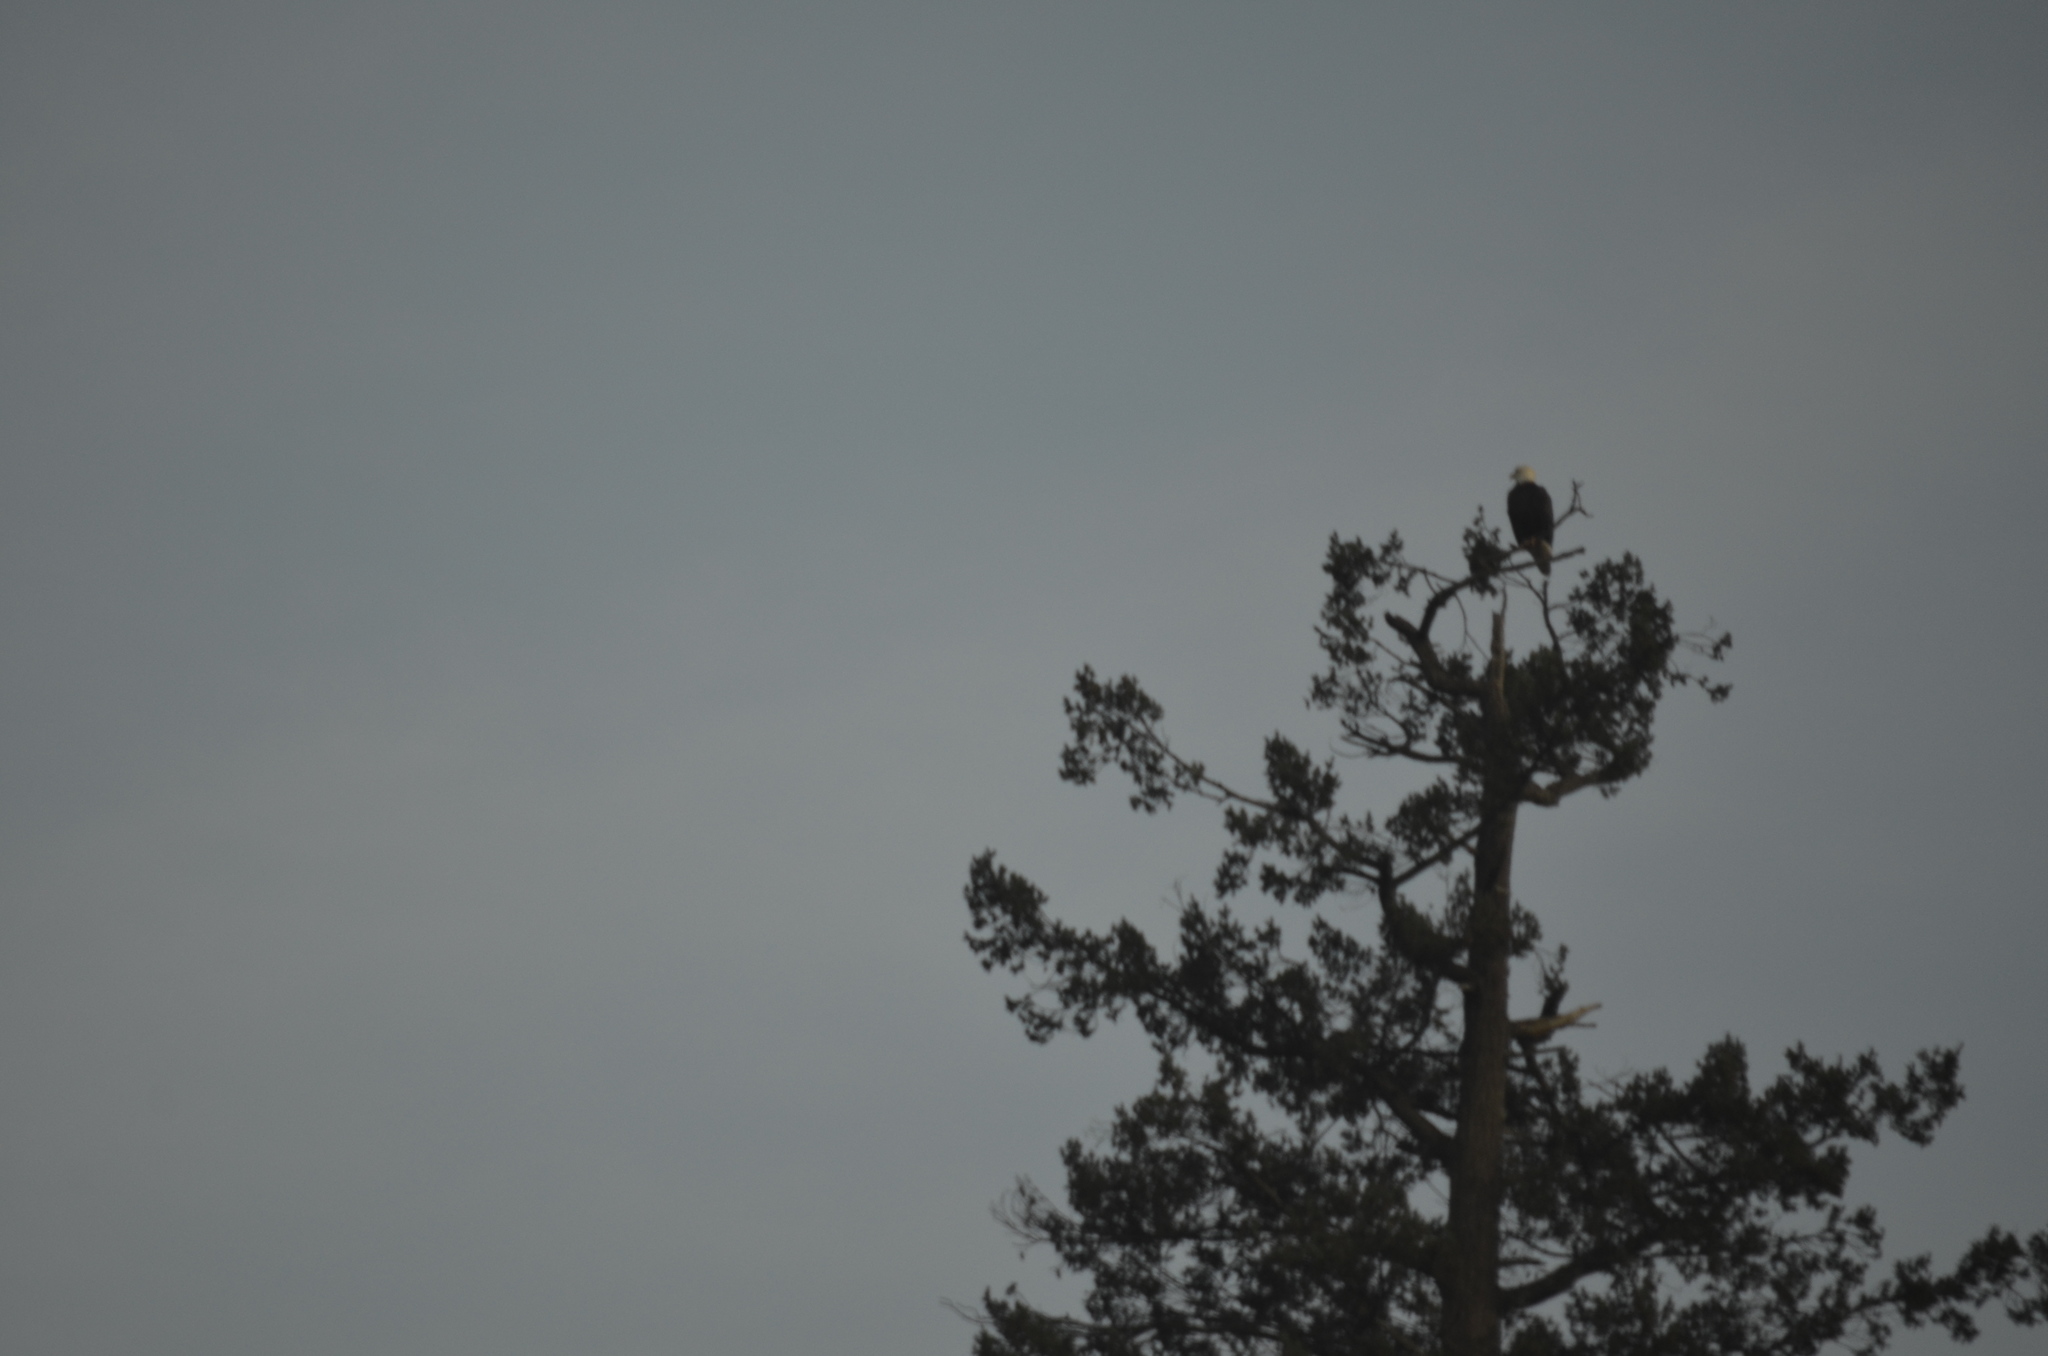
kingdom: Animalia
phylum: Chordata
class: Aves
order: Accipitriformes
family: Accipitridae
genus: Haliaeetus
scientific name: Haliaeetus leucocephalus
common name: Bald eagle
